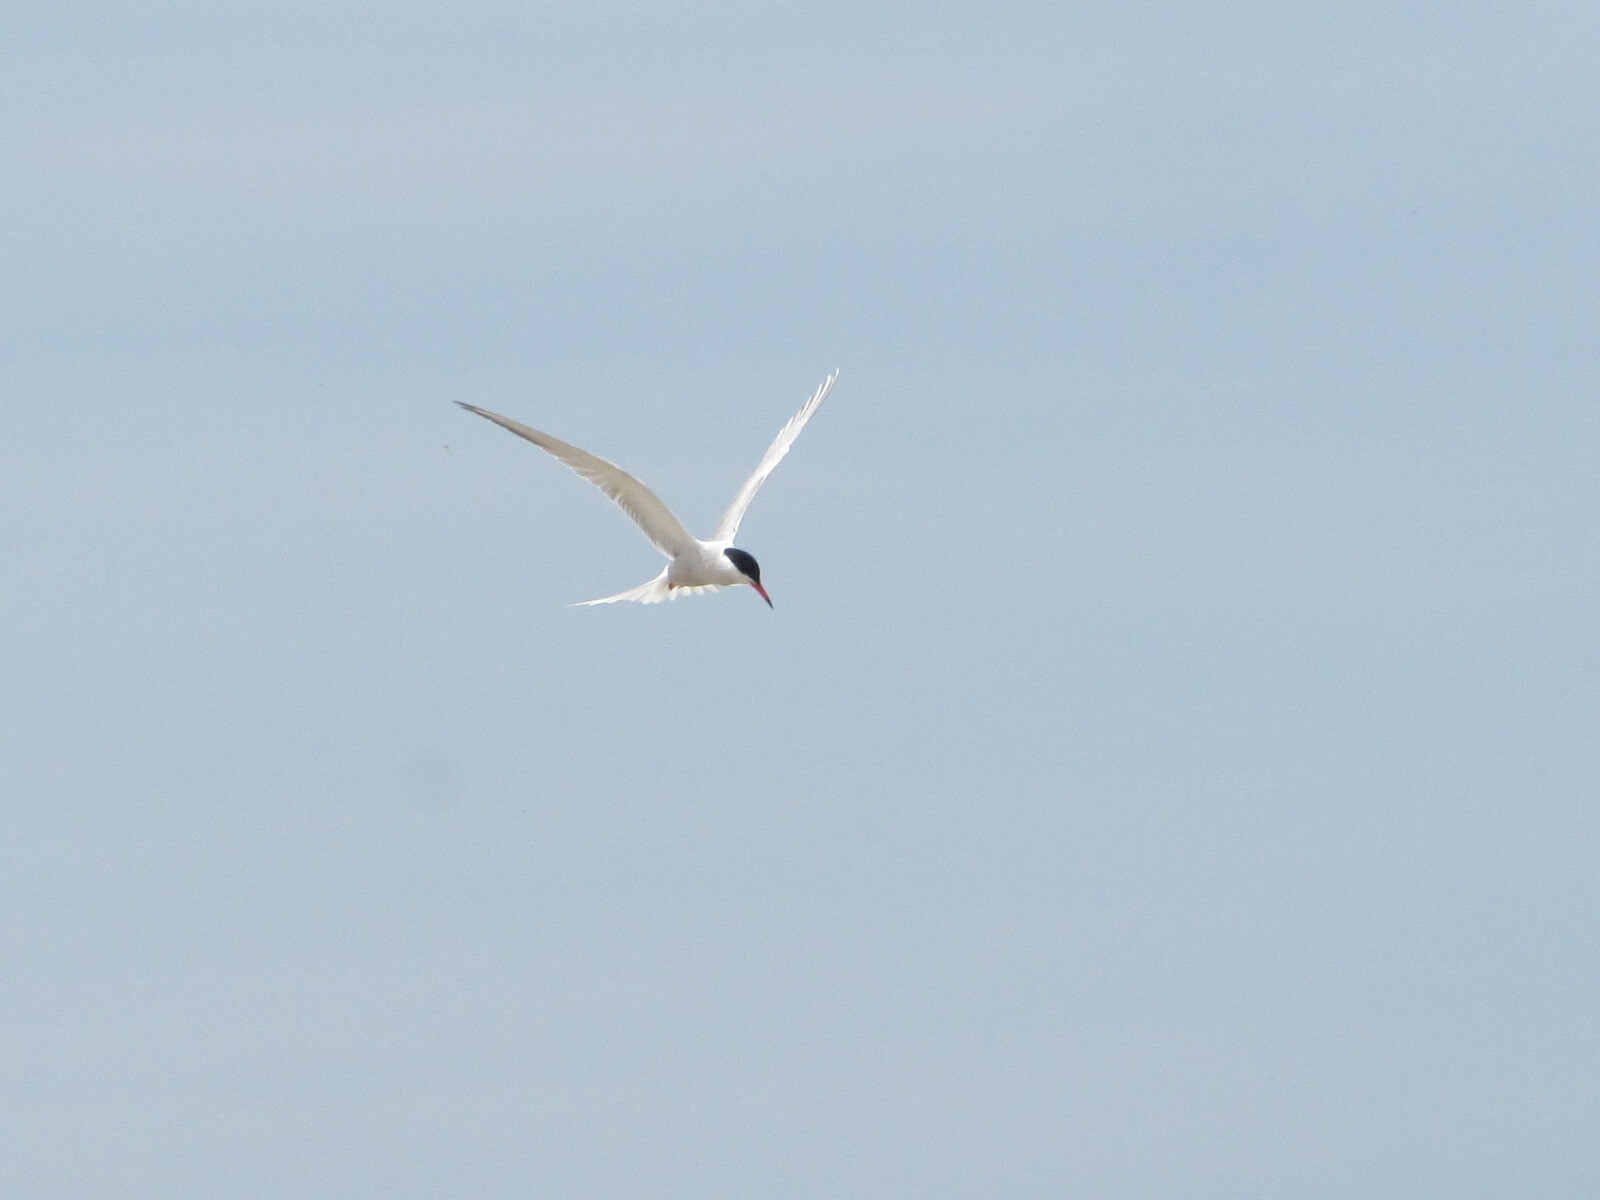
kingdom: Animalia
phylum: Chordata
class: Aves
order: Charadriiformes
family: Laridae
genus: Sterna
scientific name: Sterna hirundo
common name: Common tern
